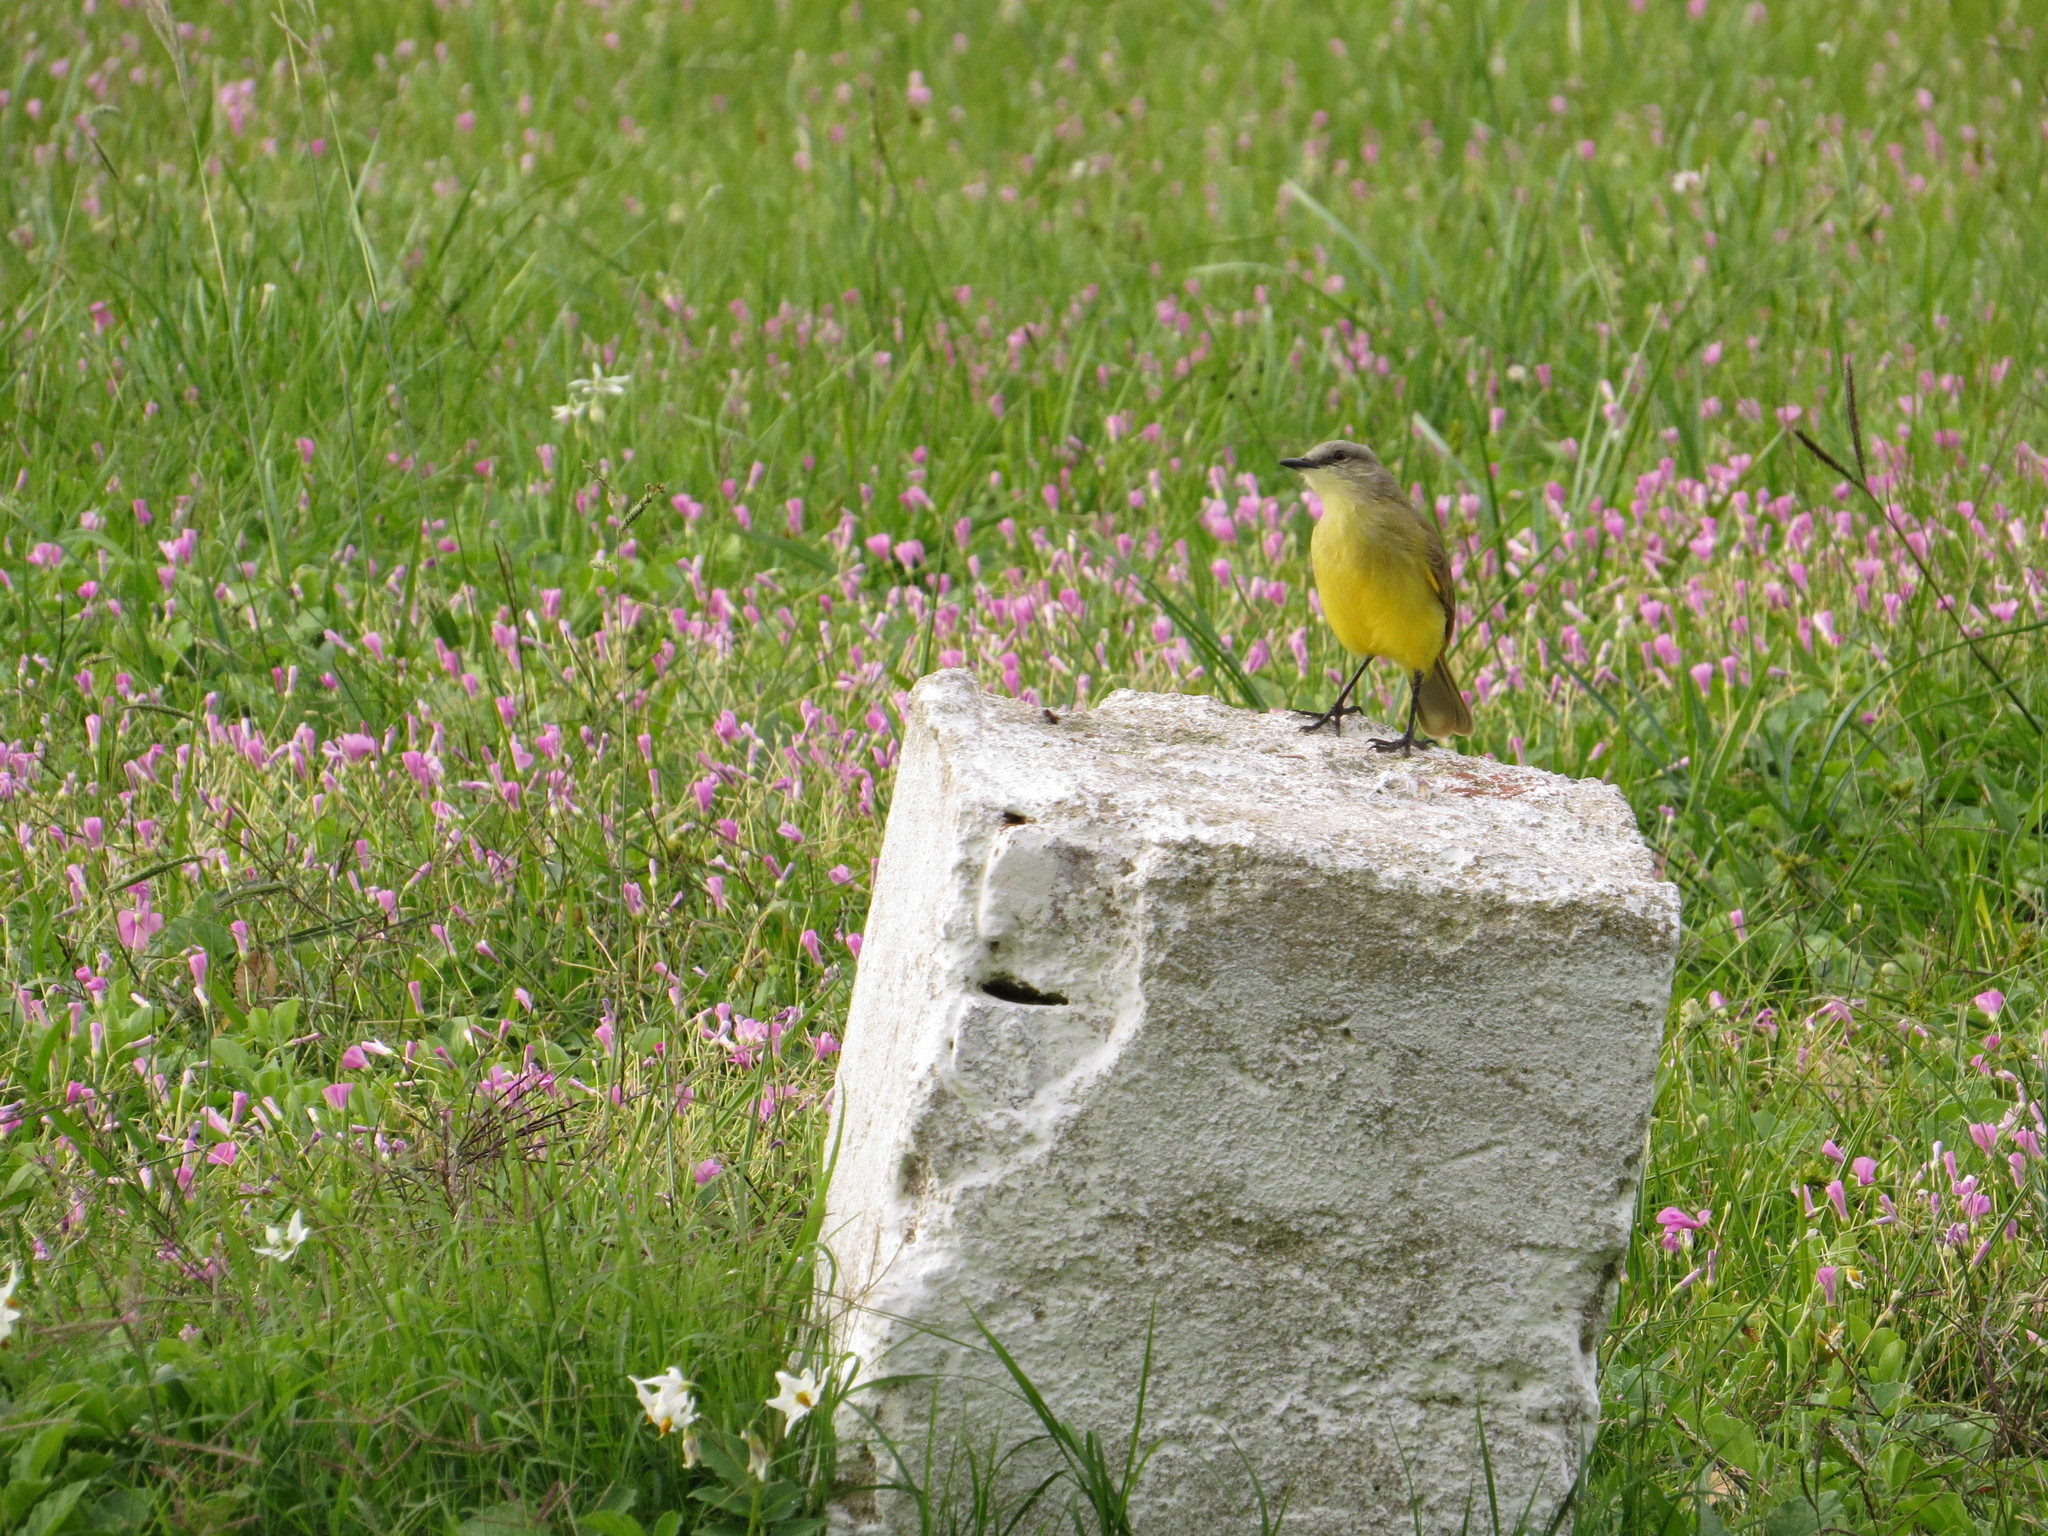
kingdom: Animalia
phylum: Chordata
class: Aves
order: Passeriformes
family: Tyrannidae
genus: Machetornis
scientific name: Machetornis rixosa
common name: Cattle tyrant
